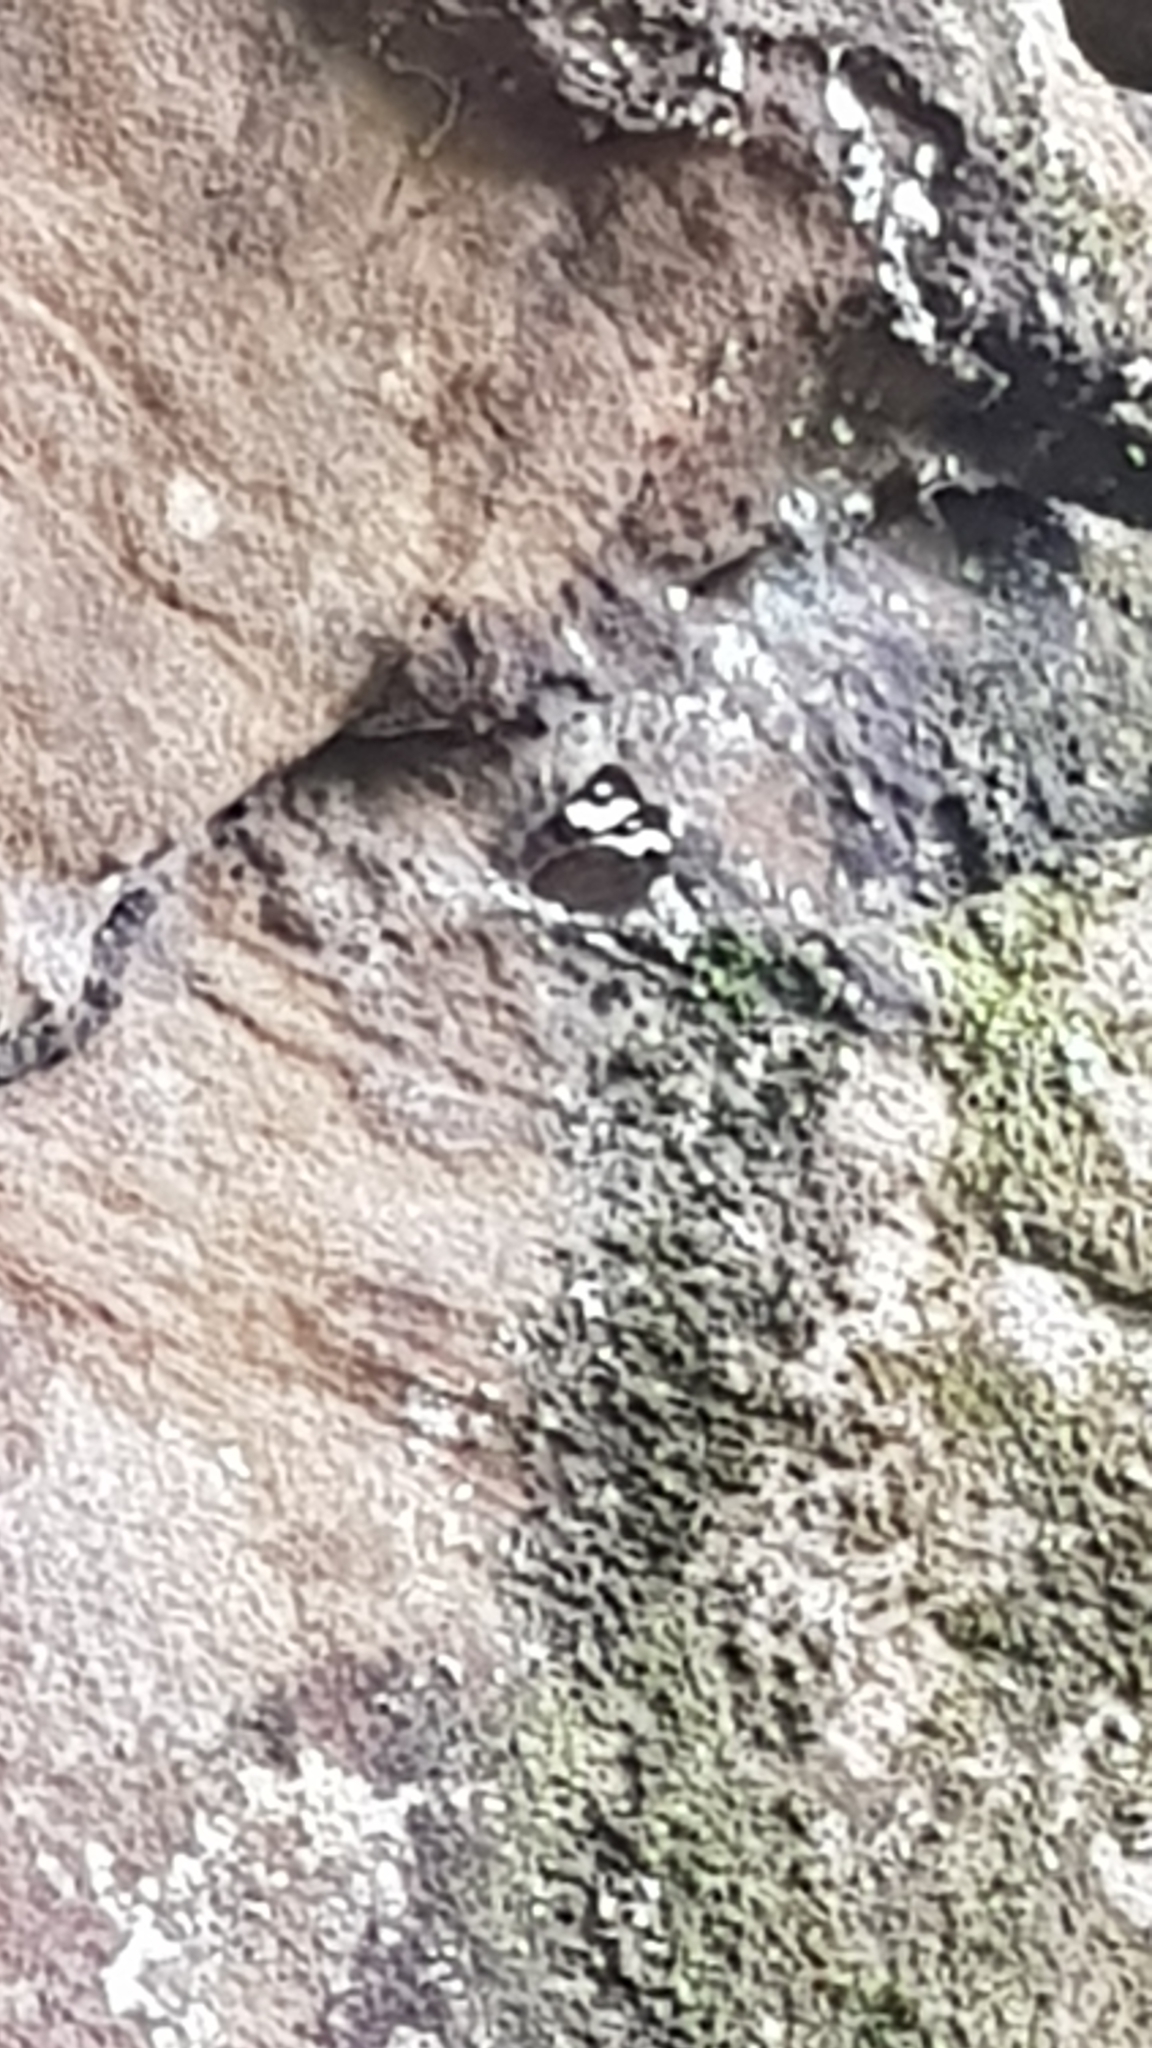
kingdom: Animalia
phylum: Arthropoda
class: Insecta
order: Lepidoptera
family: Nymphalidae
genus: Heteronympha
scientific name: Heteronympha mirifica
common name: Wonder brown
